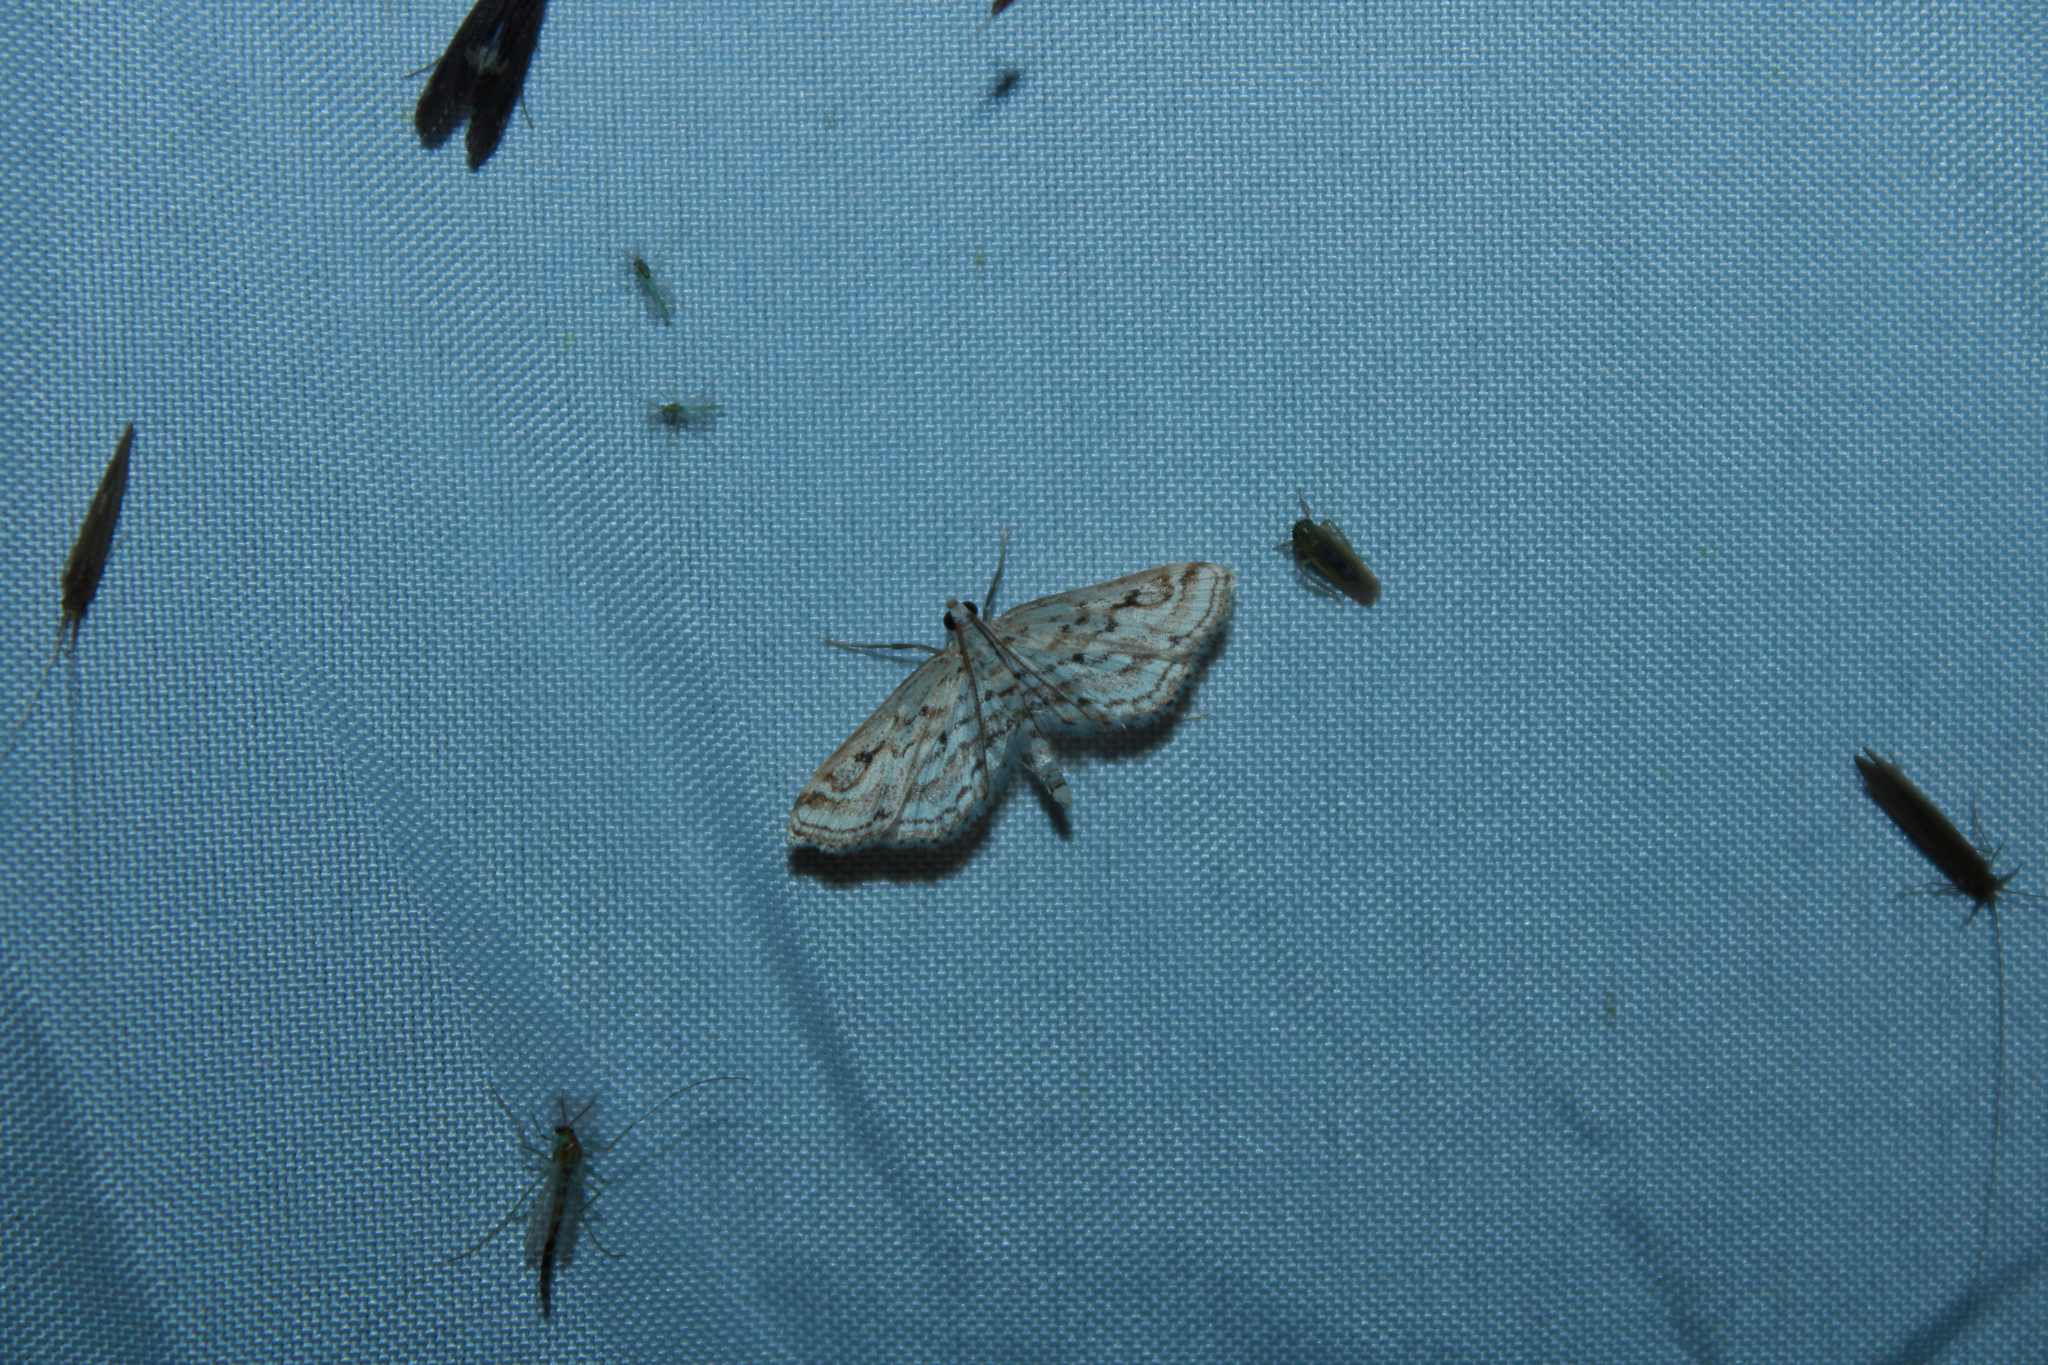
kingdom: Animalia
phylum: Arthropoda
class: Insecta
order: Lepidoptera
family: Crambidae
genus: Parapoynx
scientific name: Parapoynx allionealis
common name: Bladderwort casemaker
